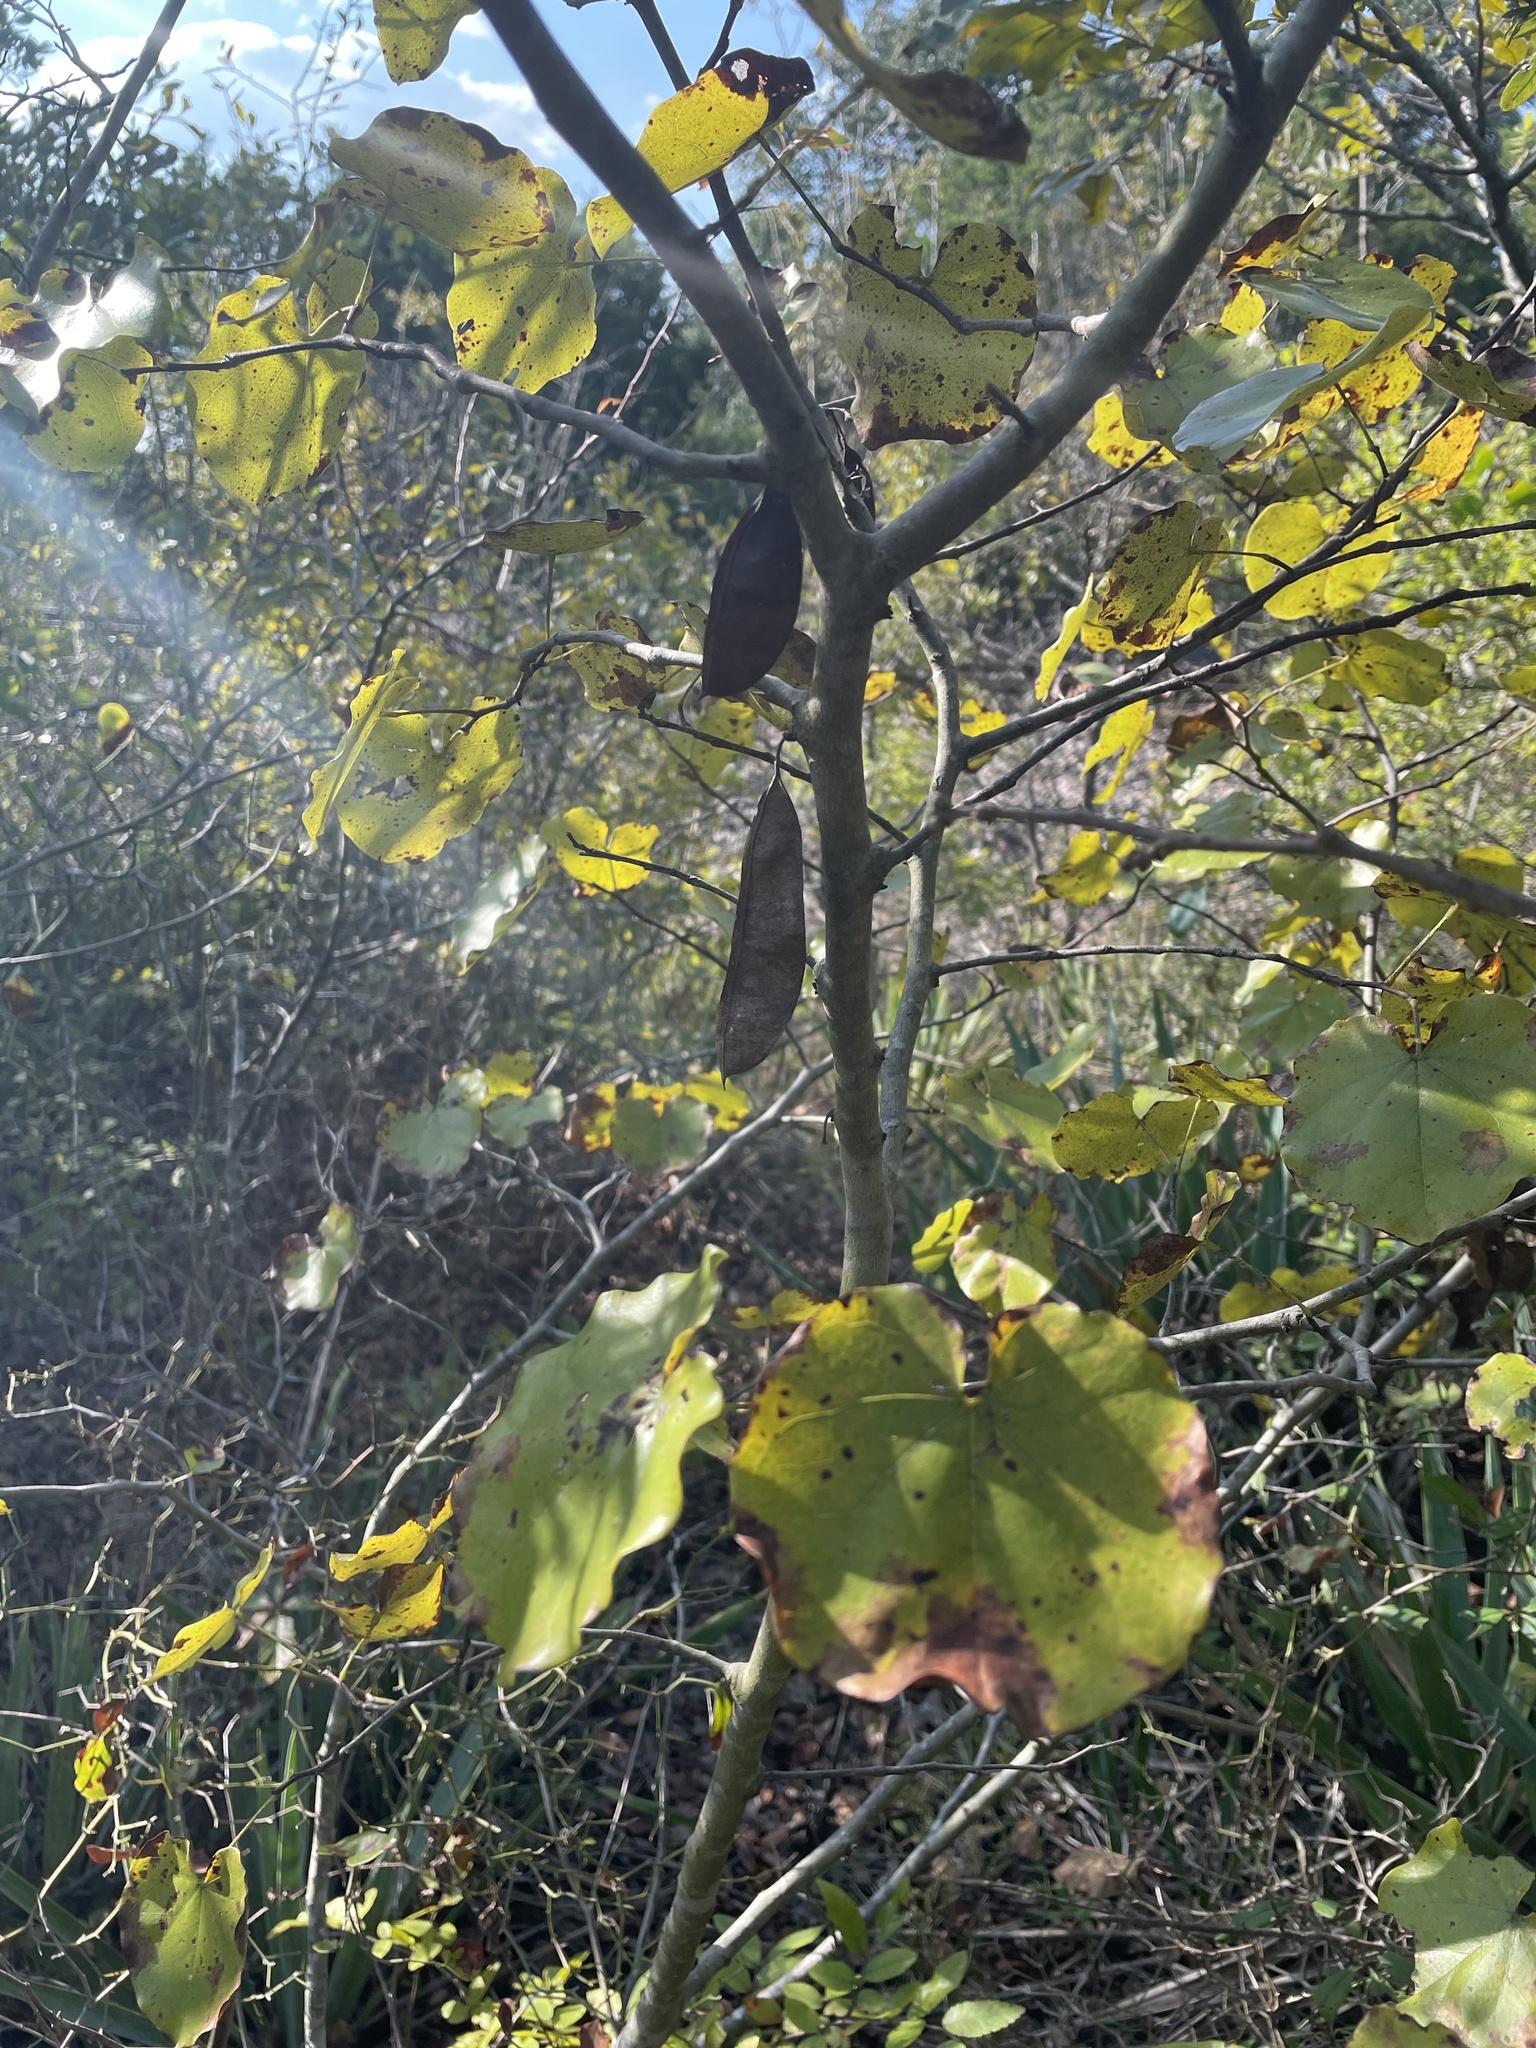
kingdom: Plantae
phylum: Tracheophyta
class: Magnoliopsida
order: Fabales
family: Fabaceae
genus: Cercis
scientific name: Cercis canadensis
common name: Eastern redbud
